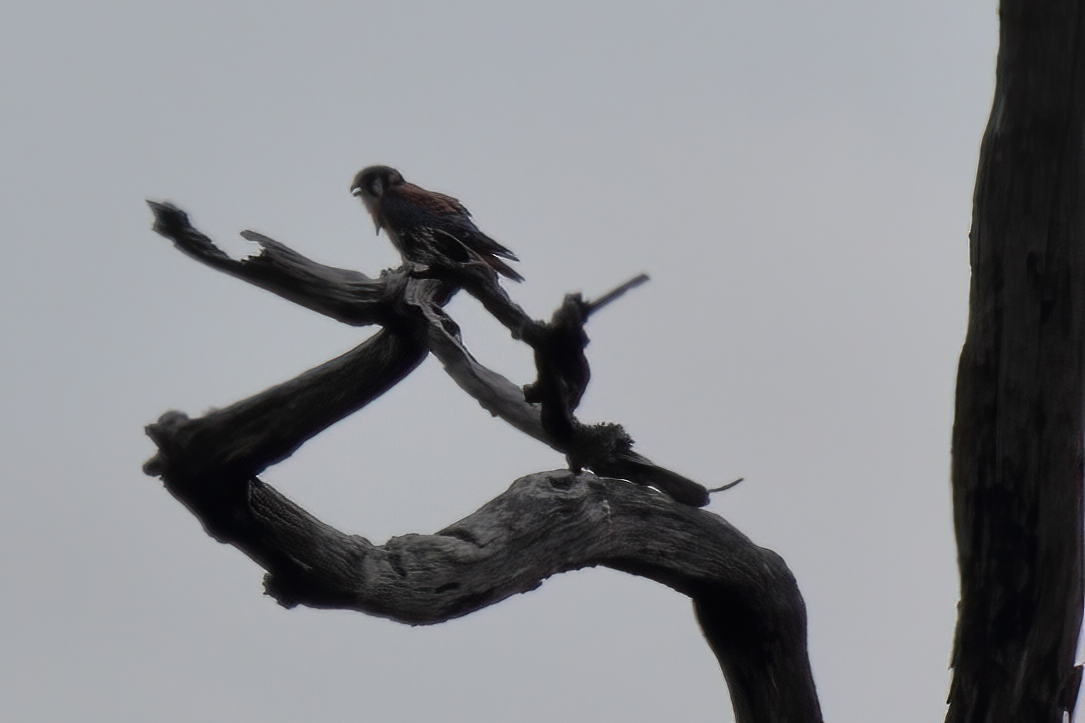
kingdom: Animalia
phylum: Chordata
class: Aves
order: Falconiformes
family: Falconidae
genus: Falco
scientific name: Falco sparverius
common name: American kestrel
